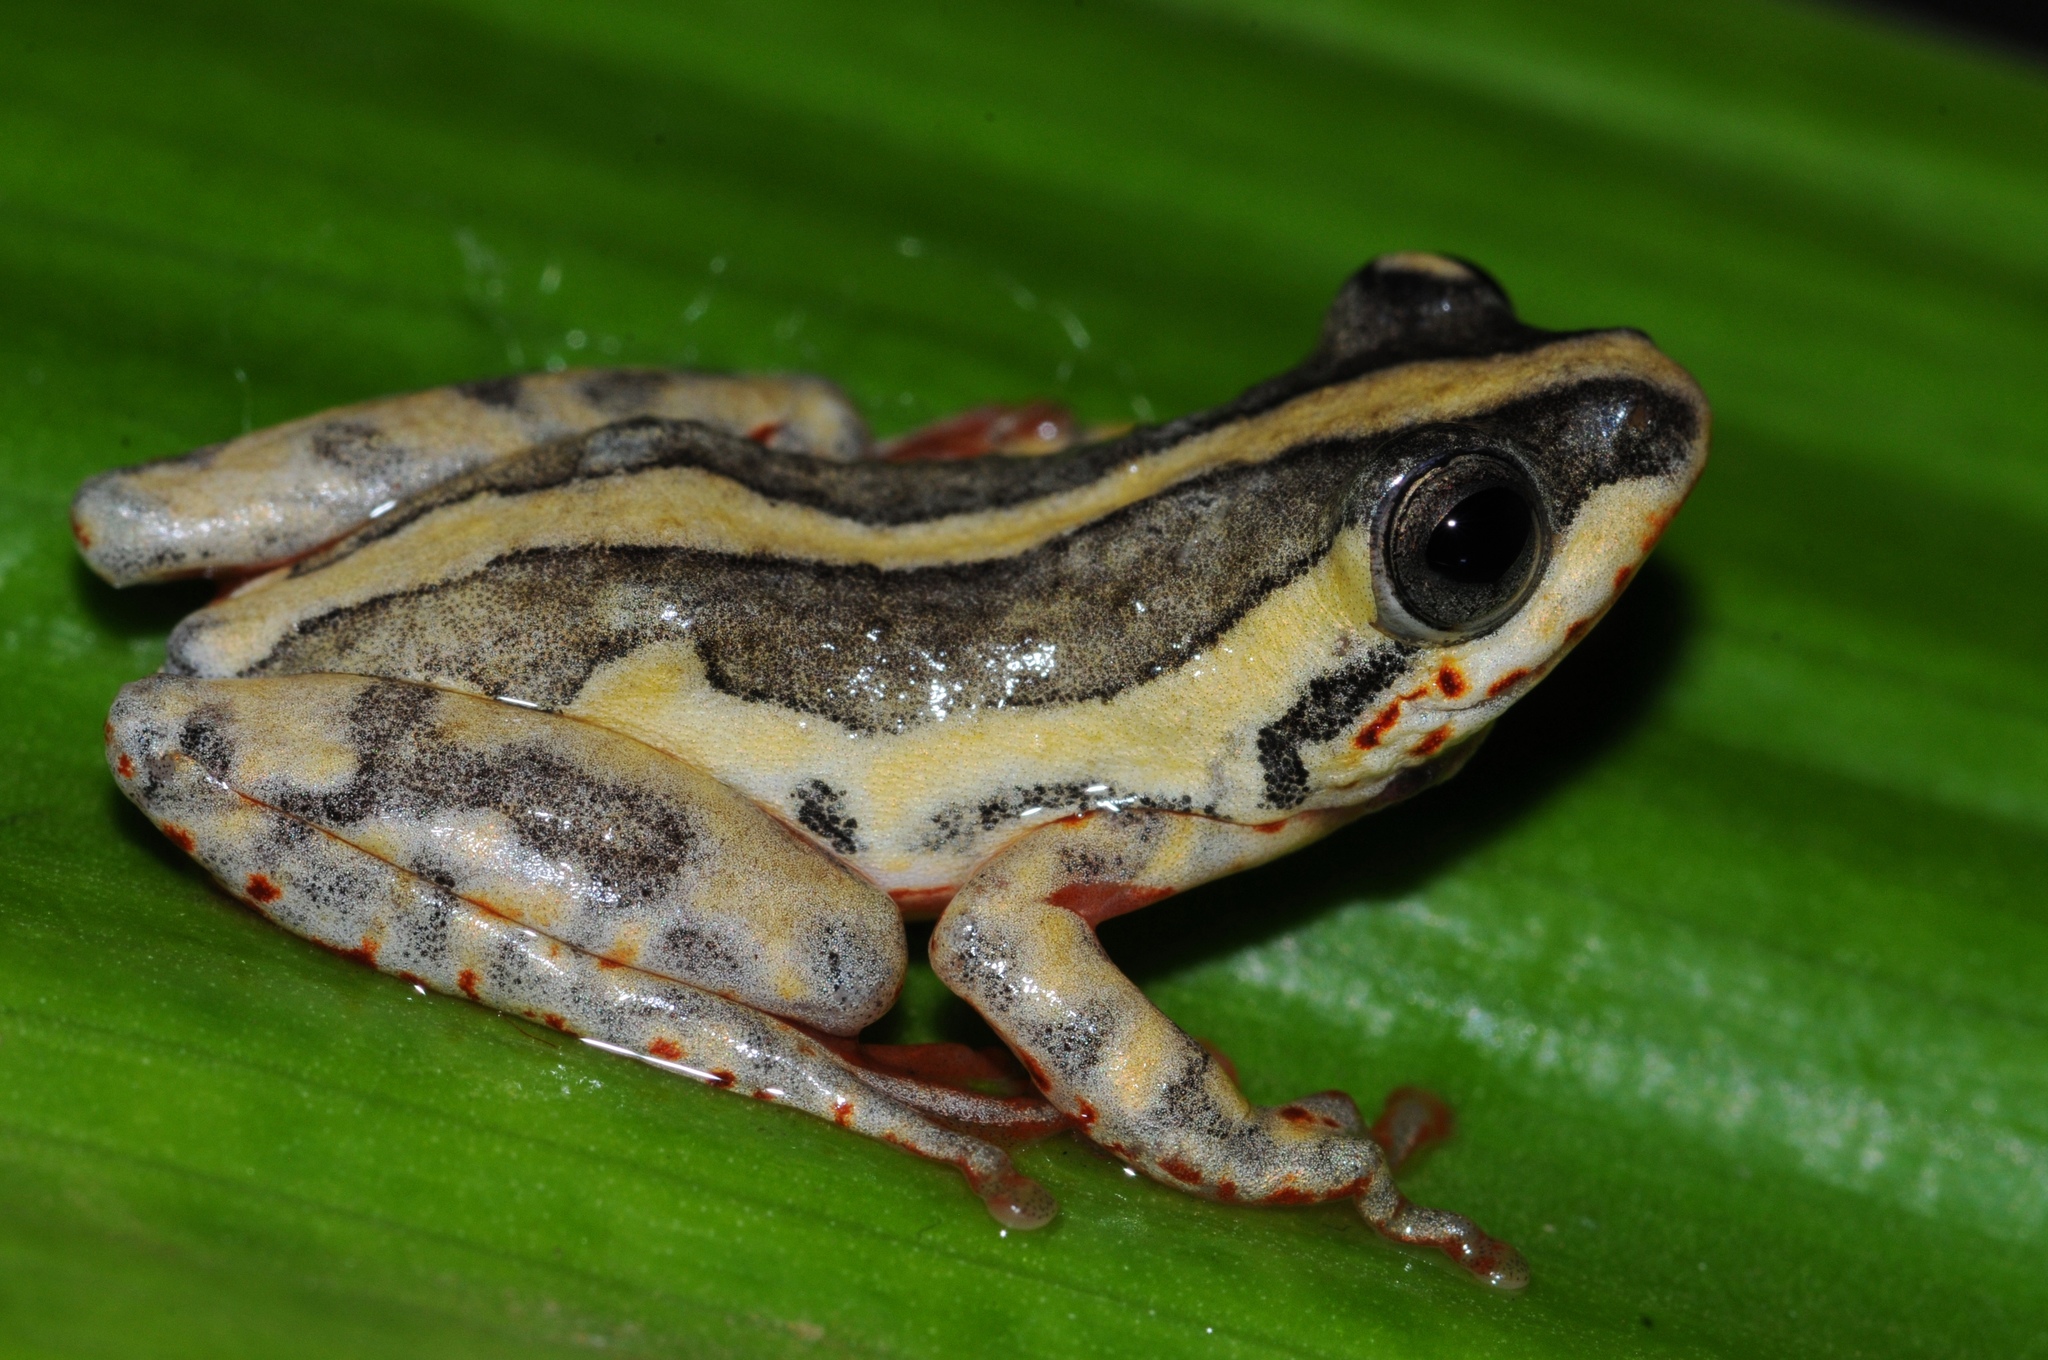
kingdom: Animalia
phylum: Chordata
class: Amphibia
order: Anura
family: Hyperoliidae
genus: Hyperolius
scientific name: Hyperolius marmoratus
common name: Painted reed frog
